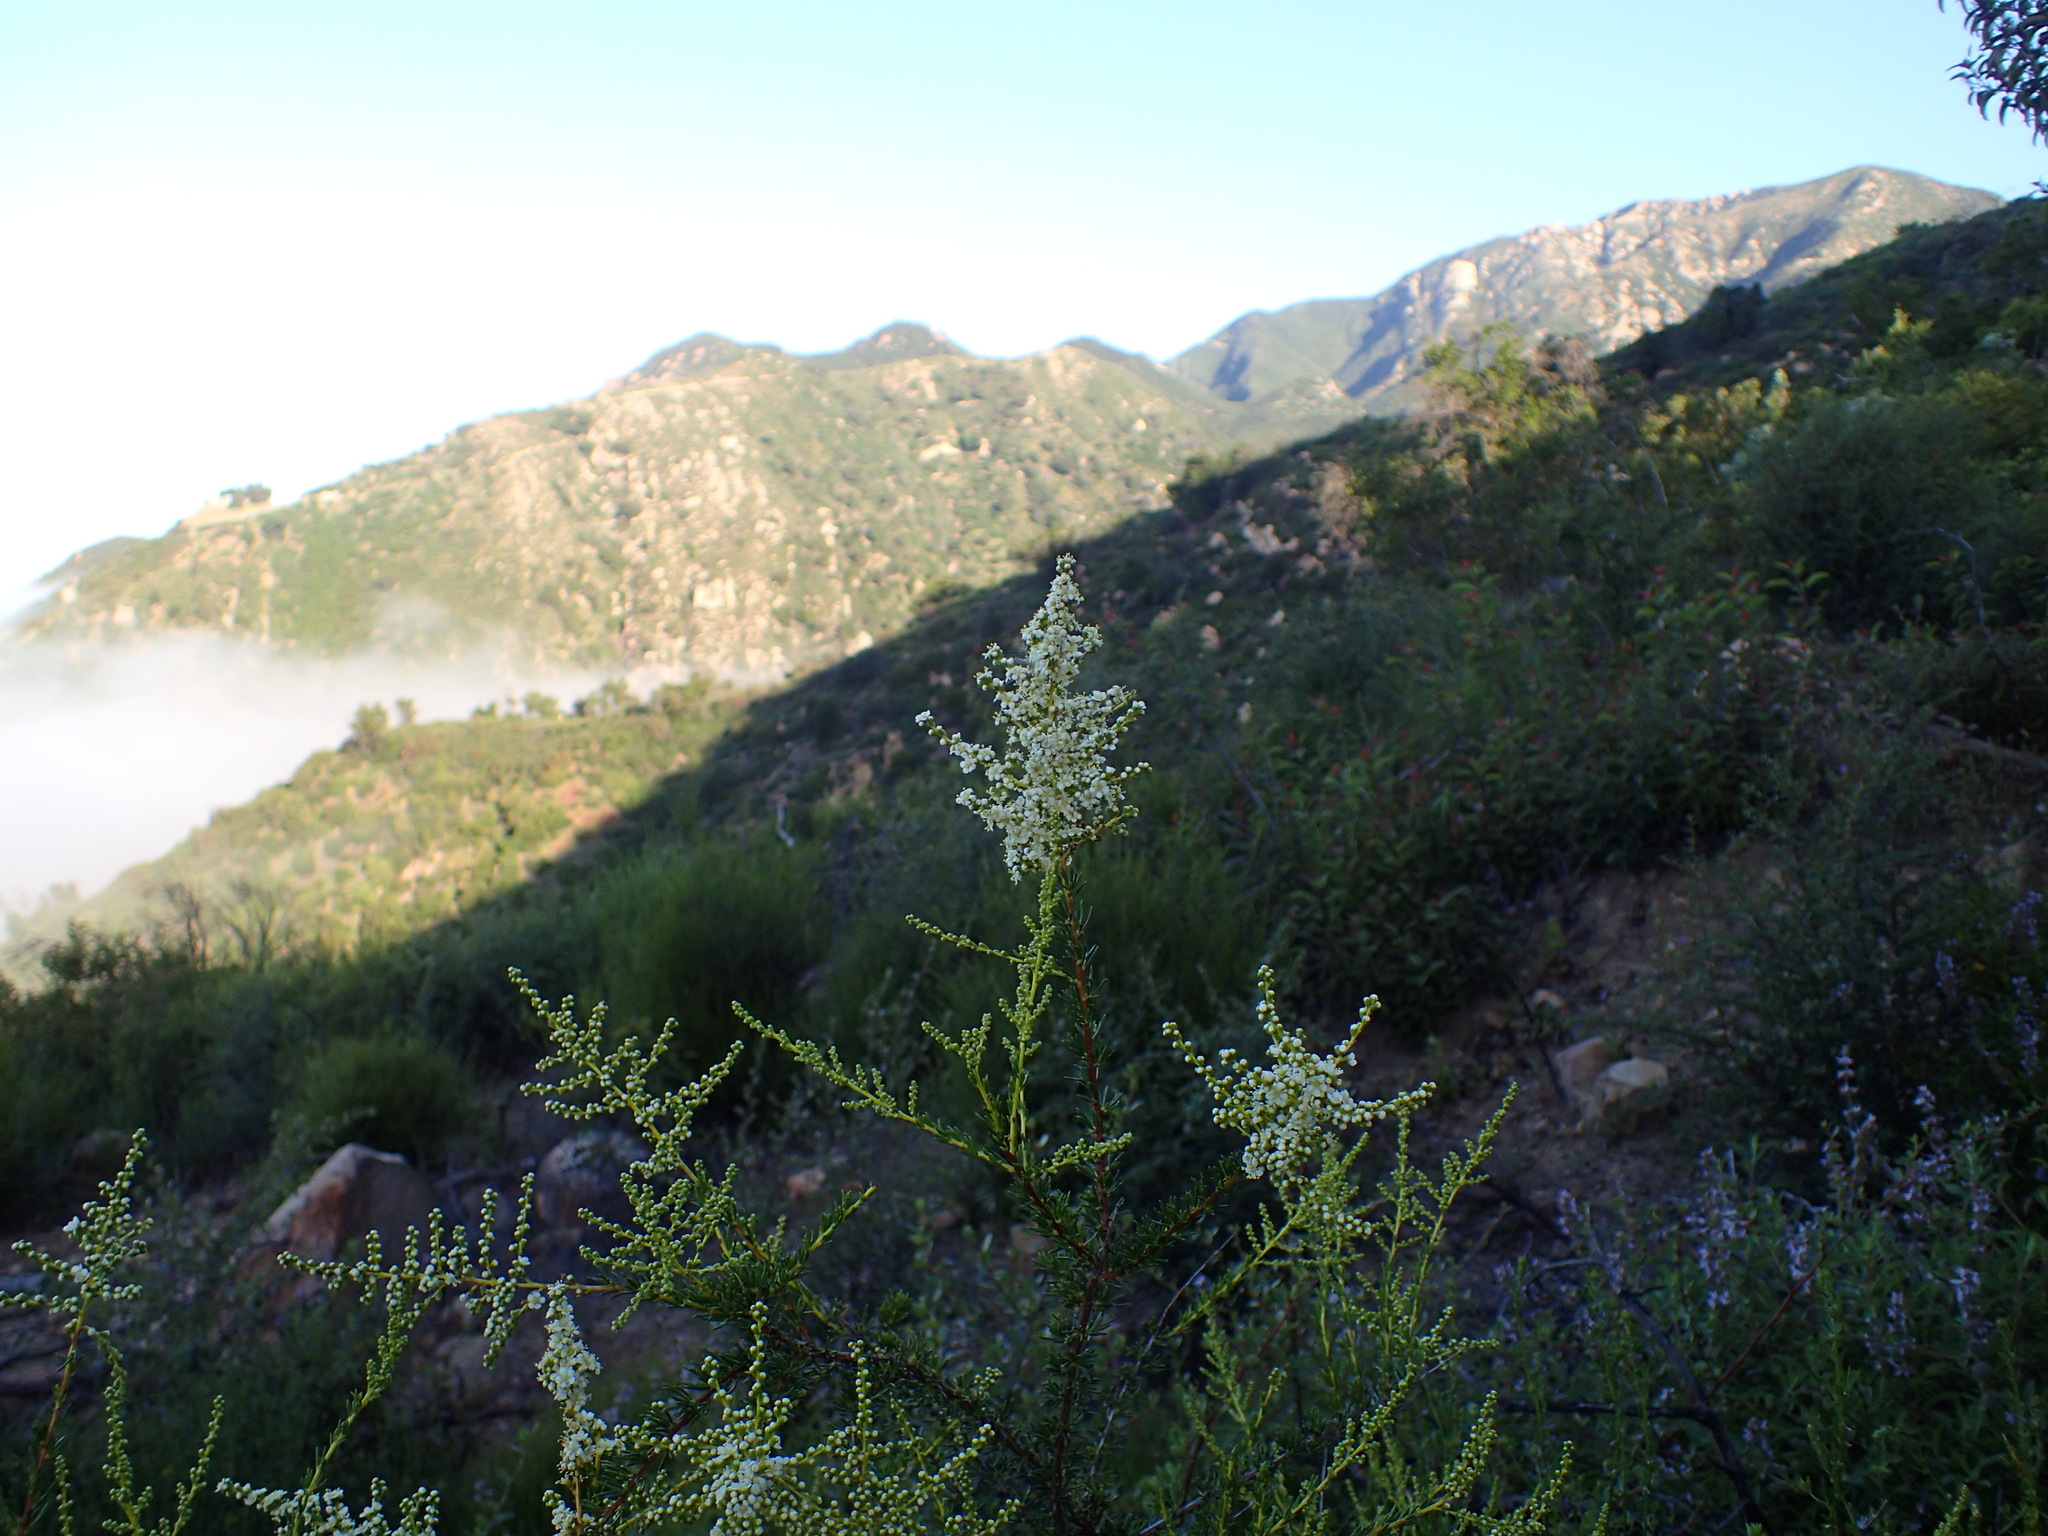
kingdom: Plantae
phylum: Tracheophyta
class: Magnoliopsida
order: Rosales
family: Rosaceae
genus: Adenostoma
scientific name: Adenostoma fasciculatum
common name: Chamise
